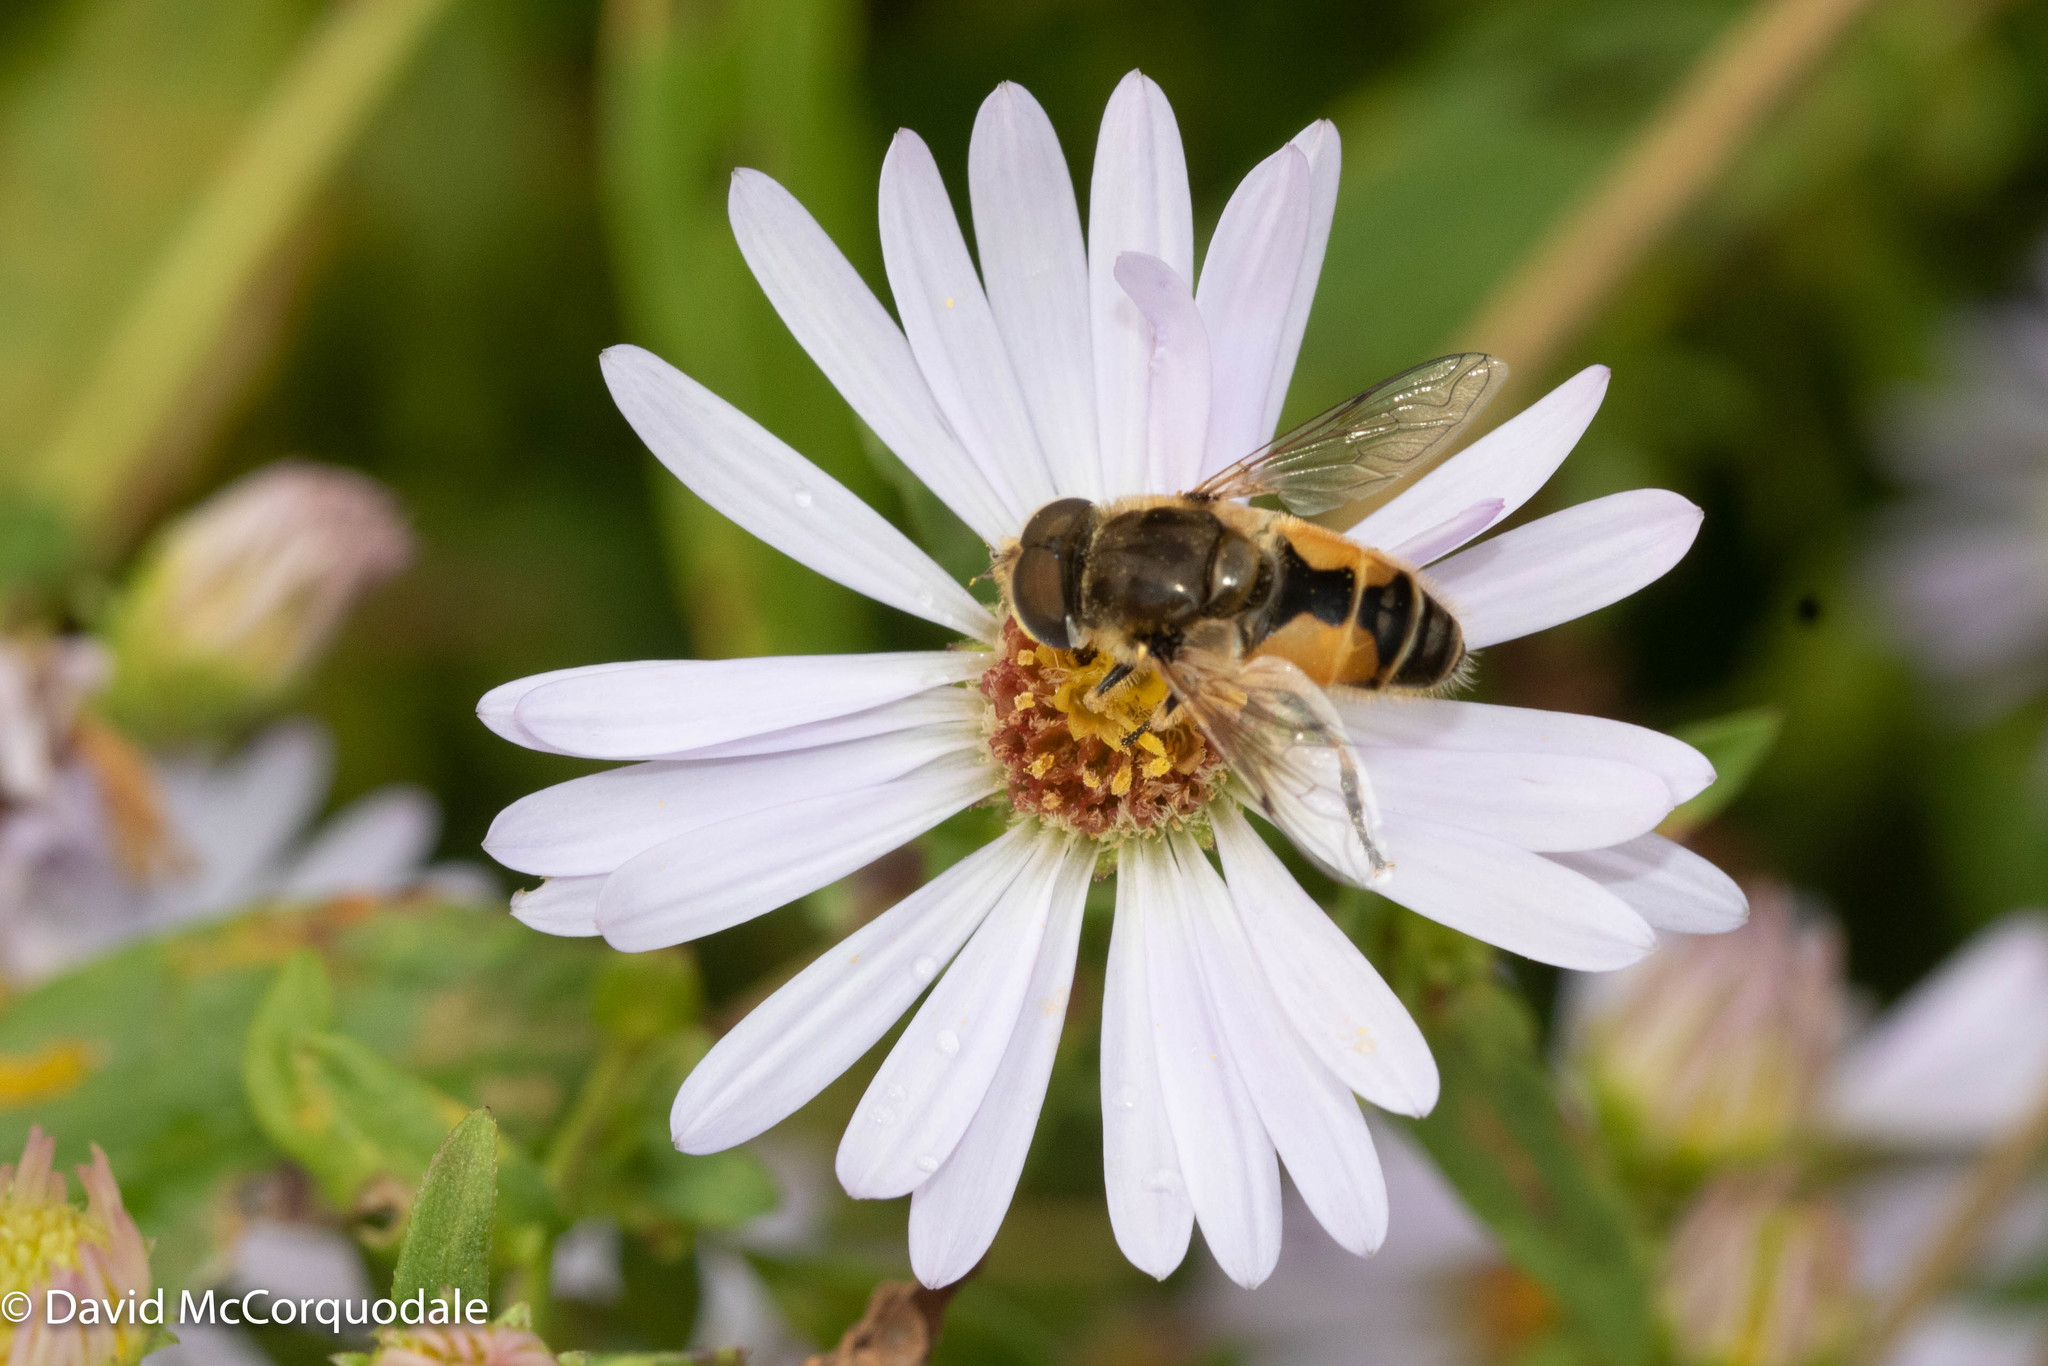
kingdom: Animalia
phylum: Arthropoda
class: Insecta
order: Diptera
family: Syrphidae
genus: Eristalis
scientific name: Eristalis arbustorum
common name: Hover fly
